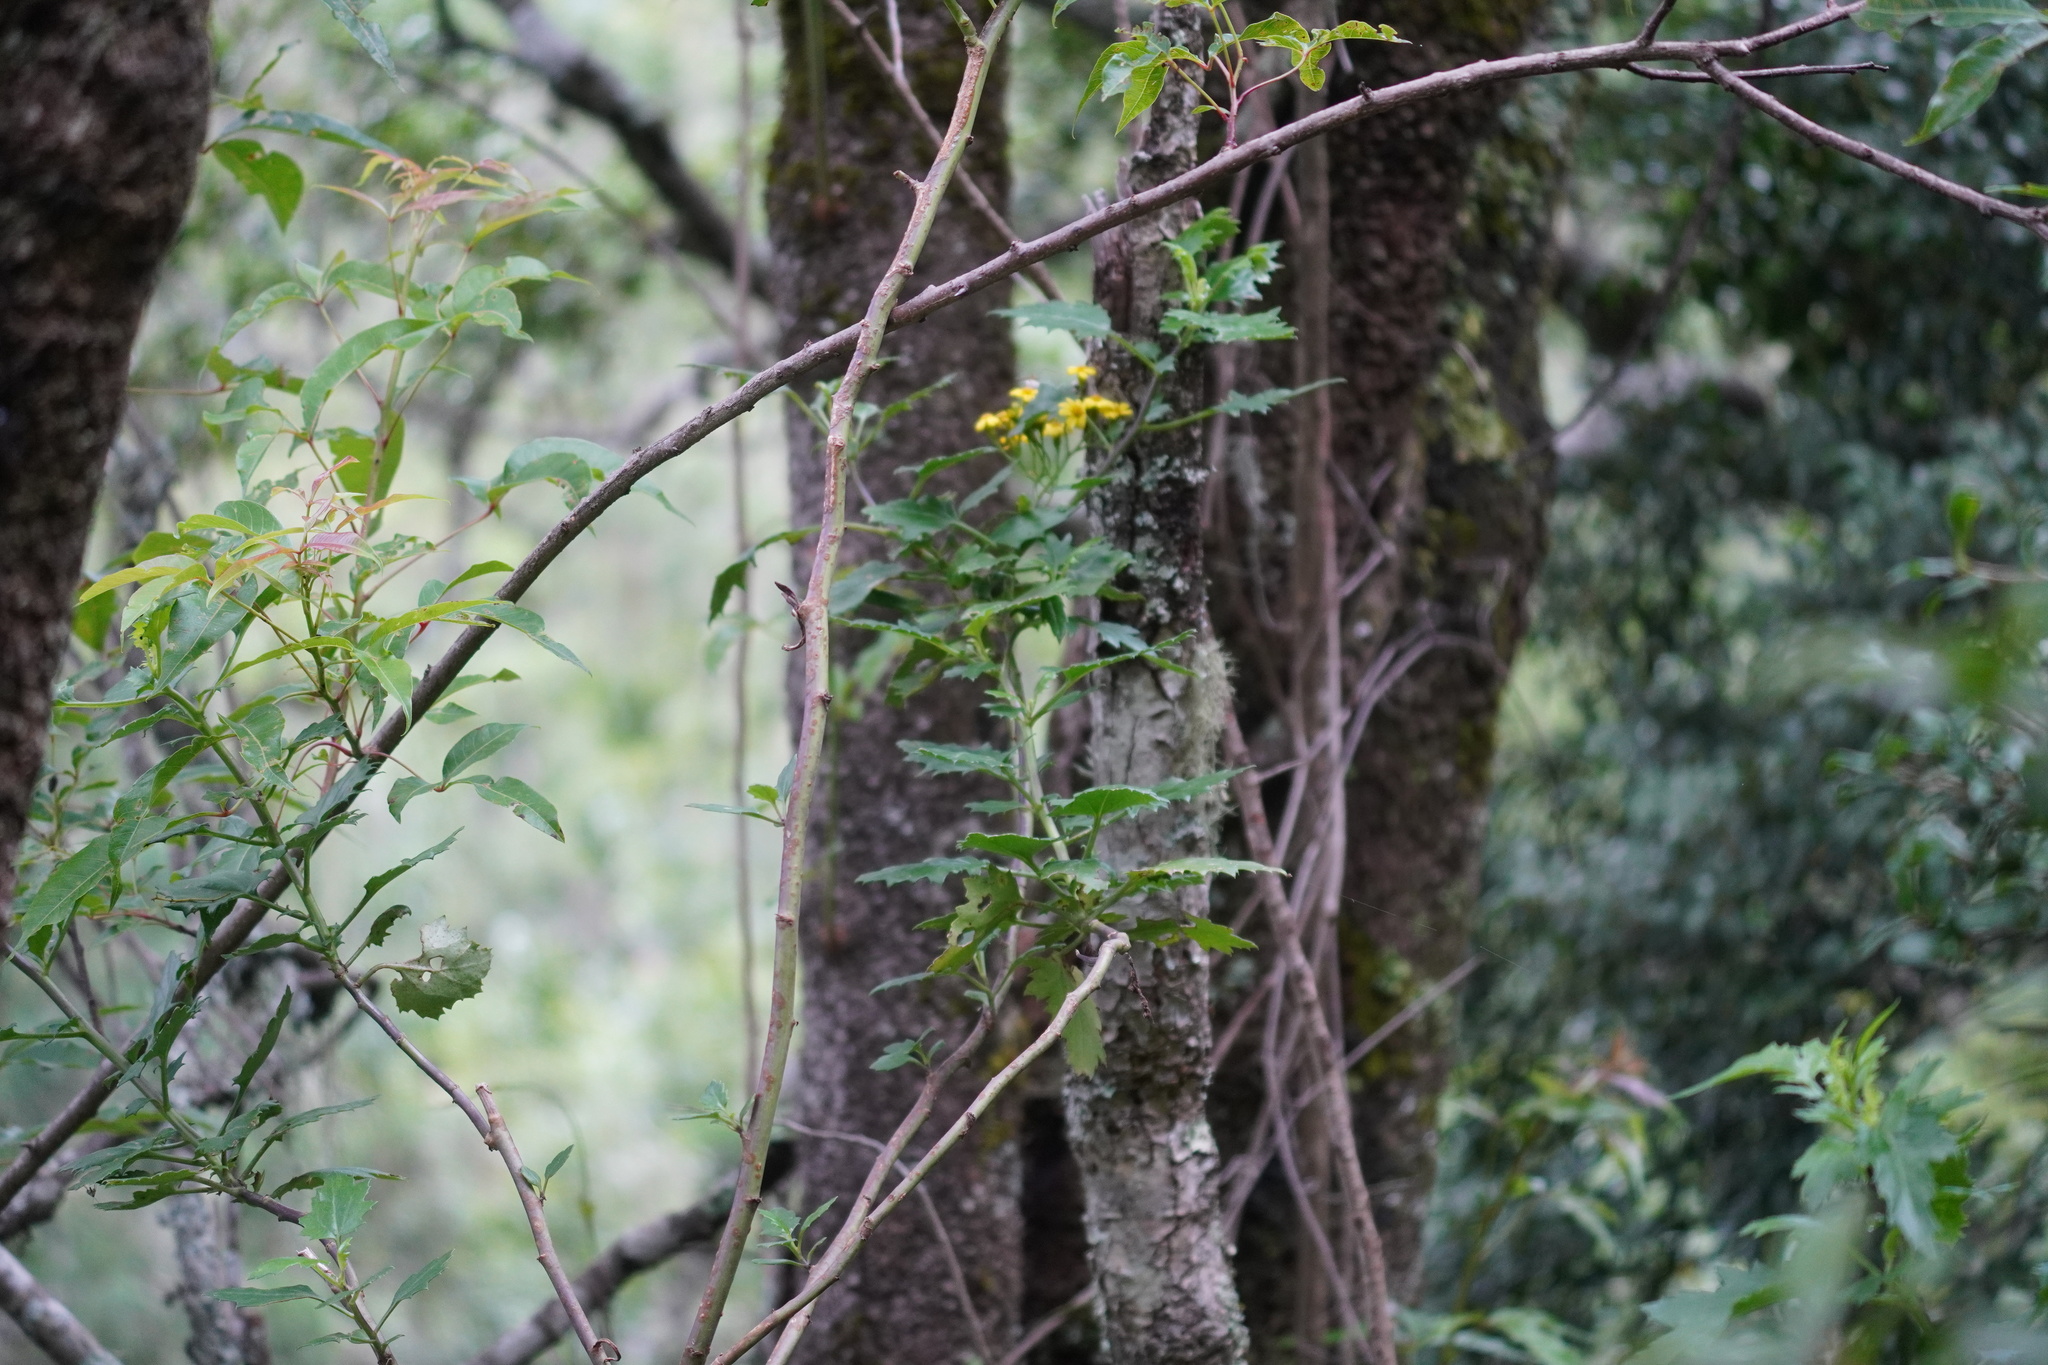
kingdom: Plantae
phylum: Tracheophyta
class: Magnoliopsida
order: Asterales
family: Asteraceae
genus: Senecio
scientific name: Senecio angulatus
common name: Climbing groundsel
